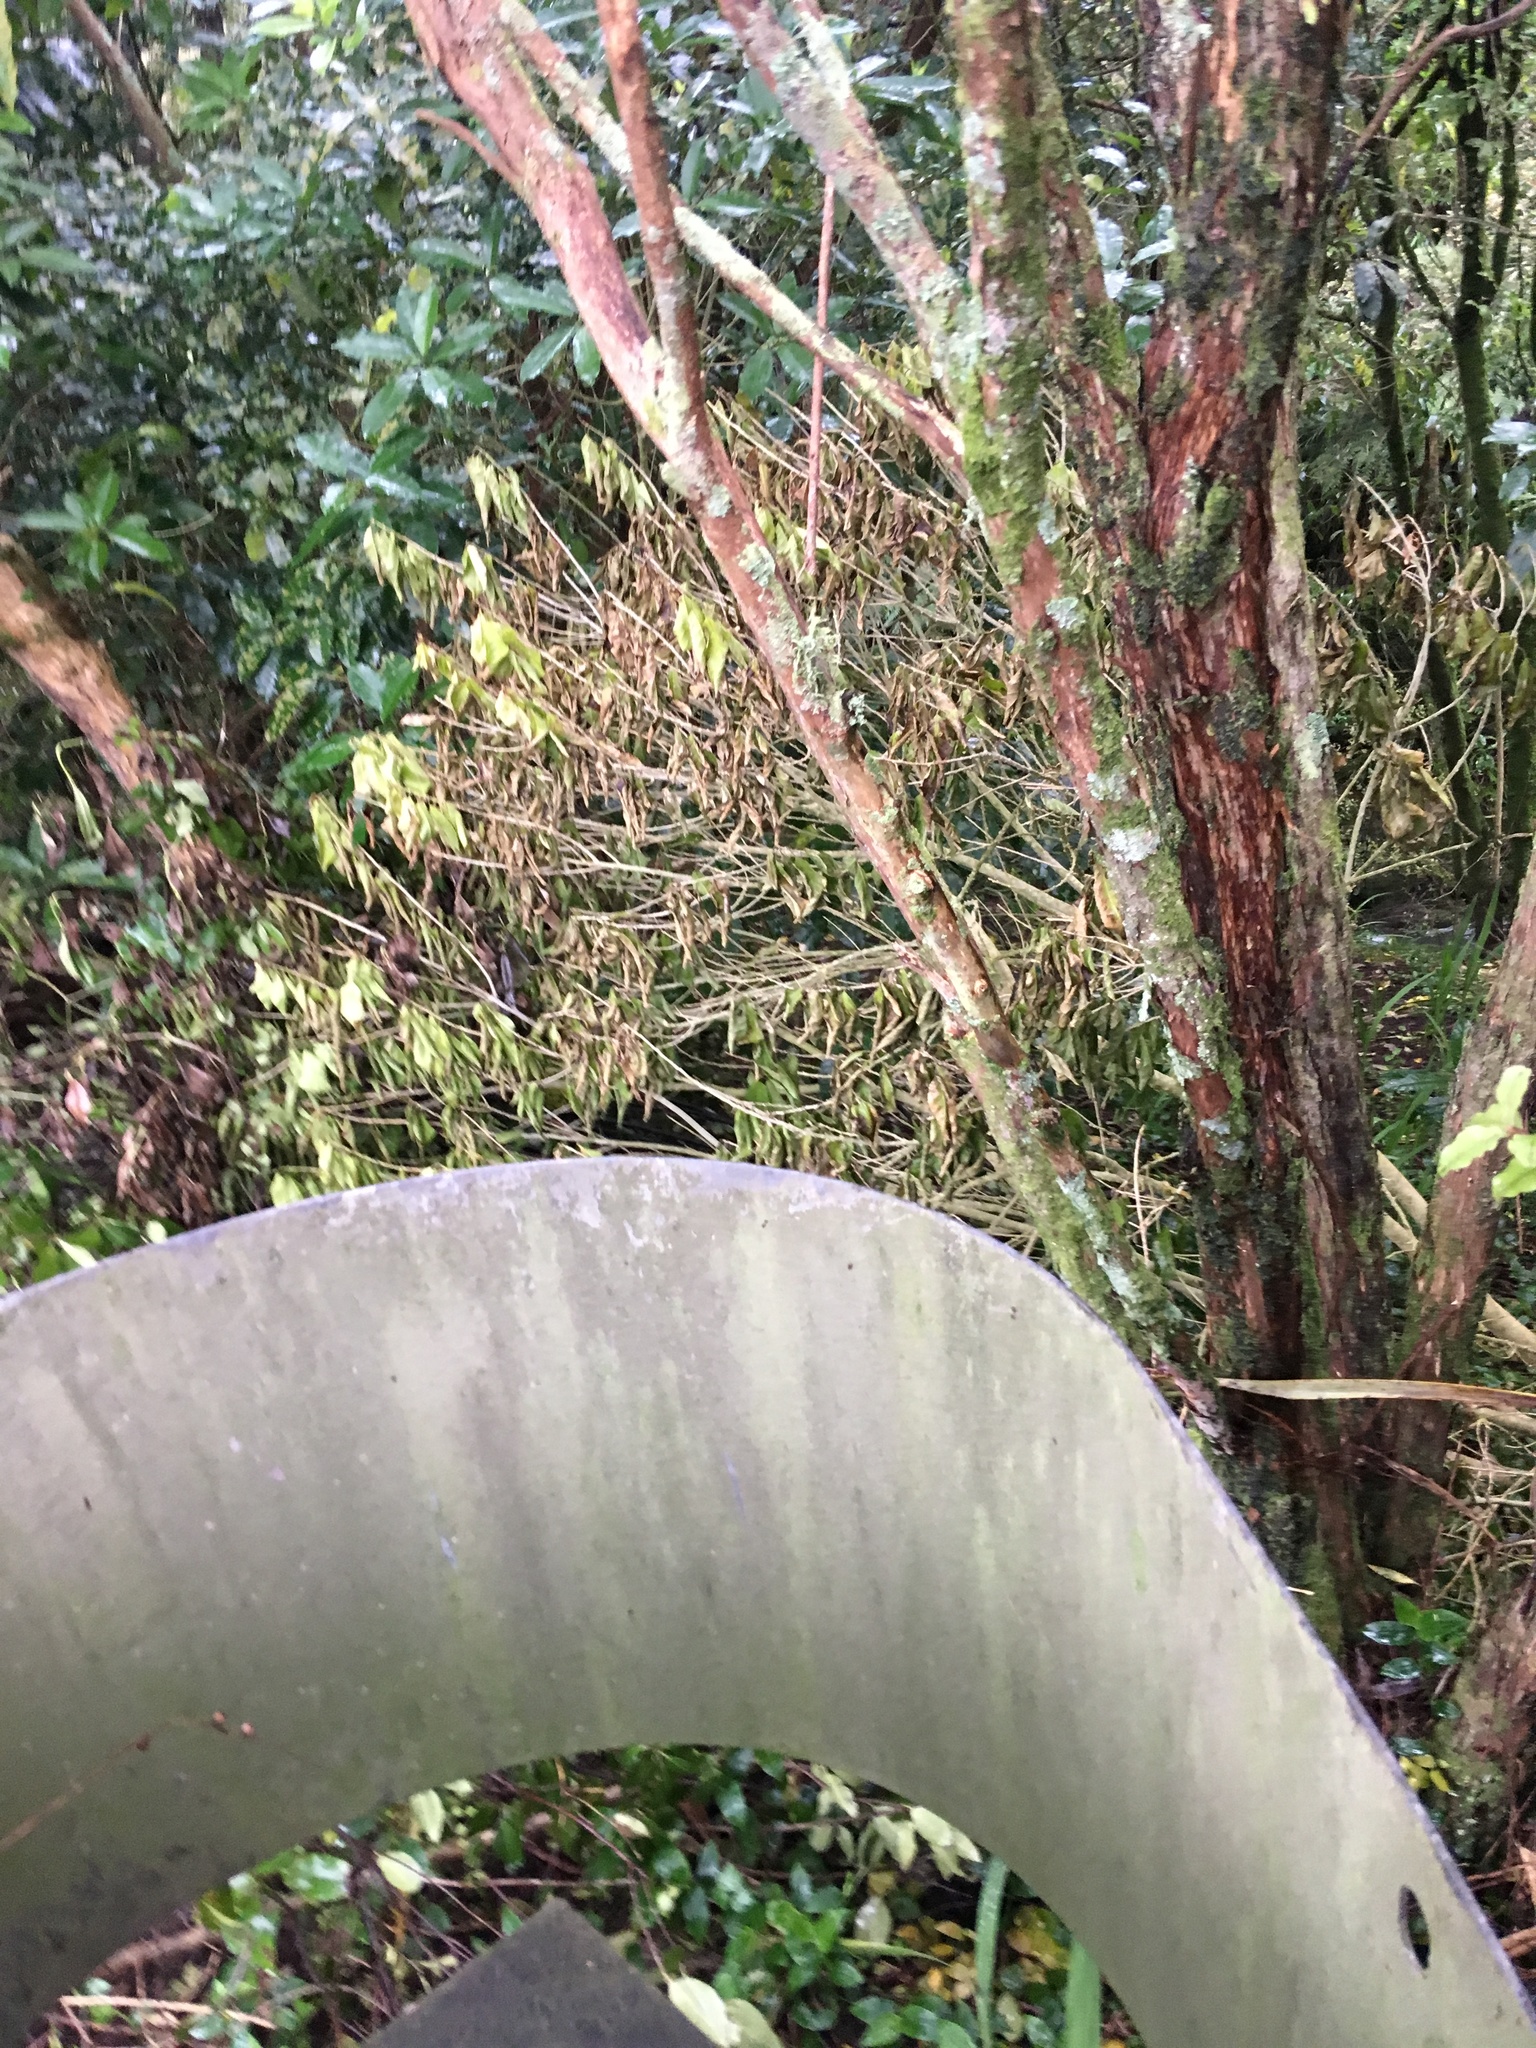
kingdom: Plantae
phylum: Tracheophyta
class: Magnoliopsida
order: Ericales
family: Primulaceae
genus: Myrsine
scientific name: Myrsine australis
